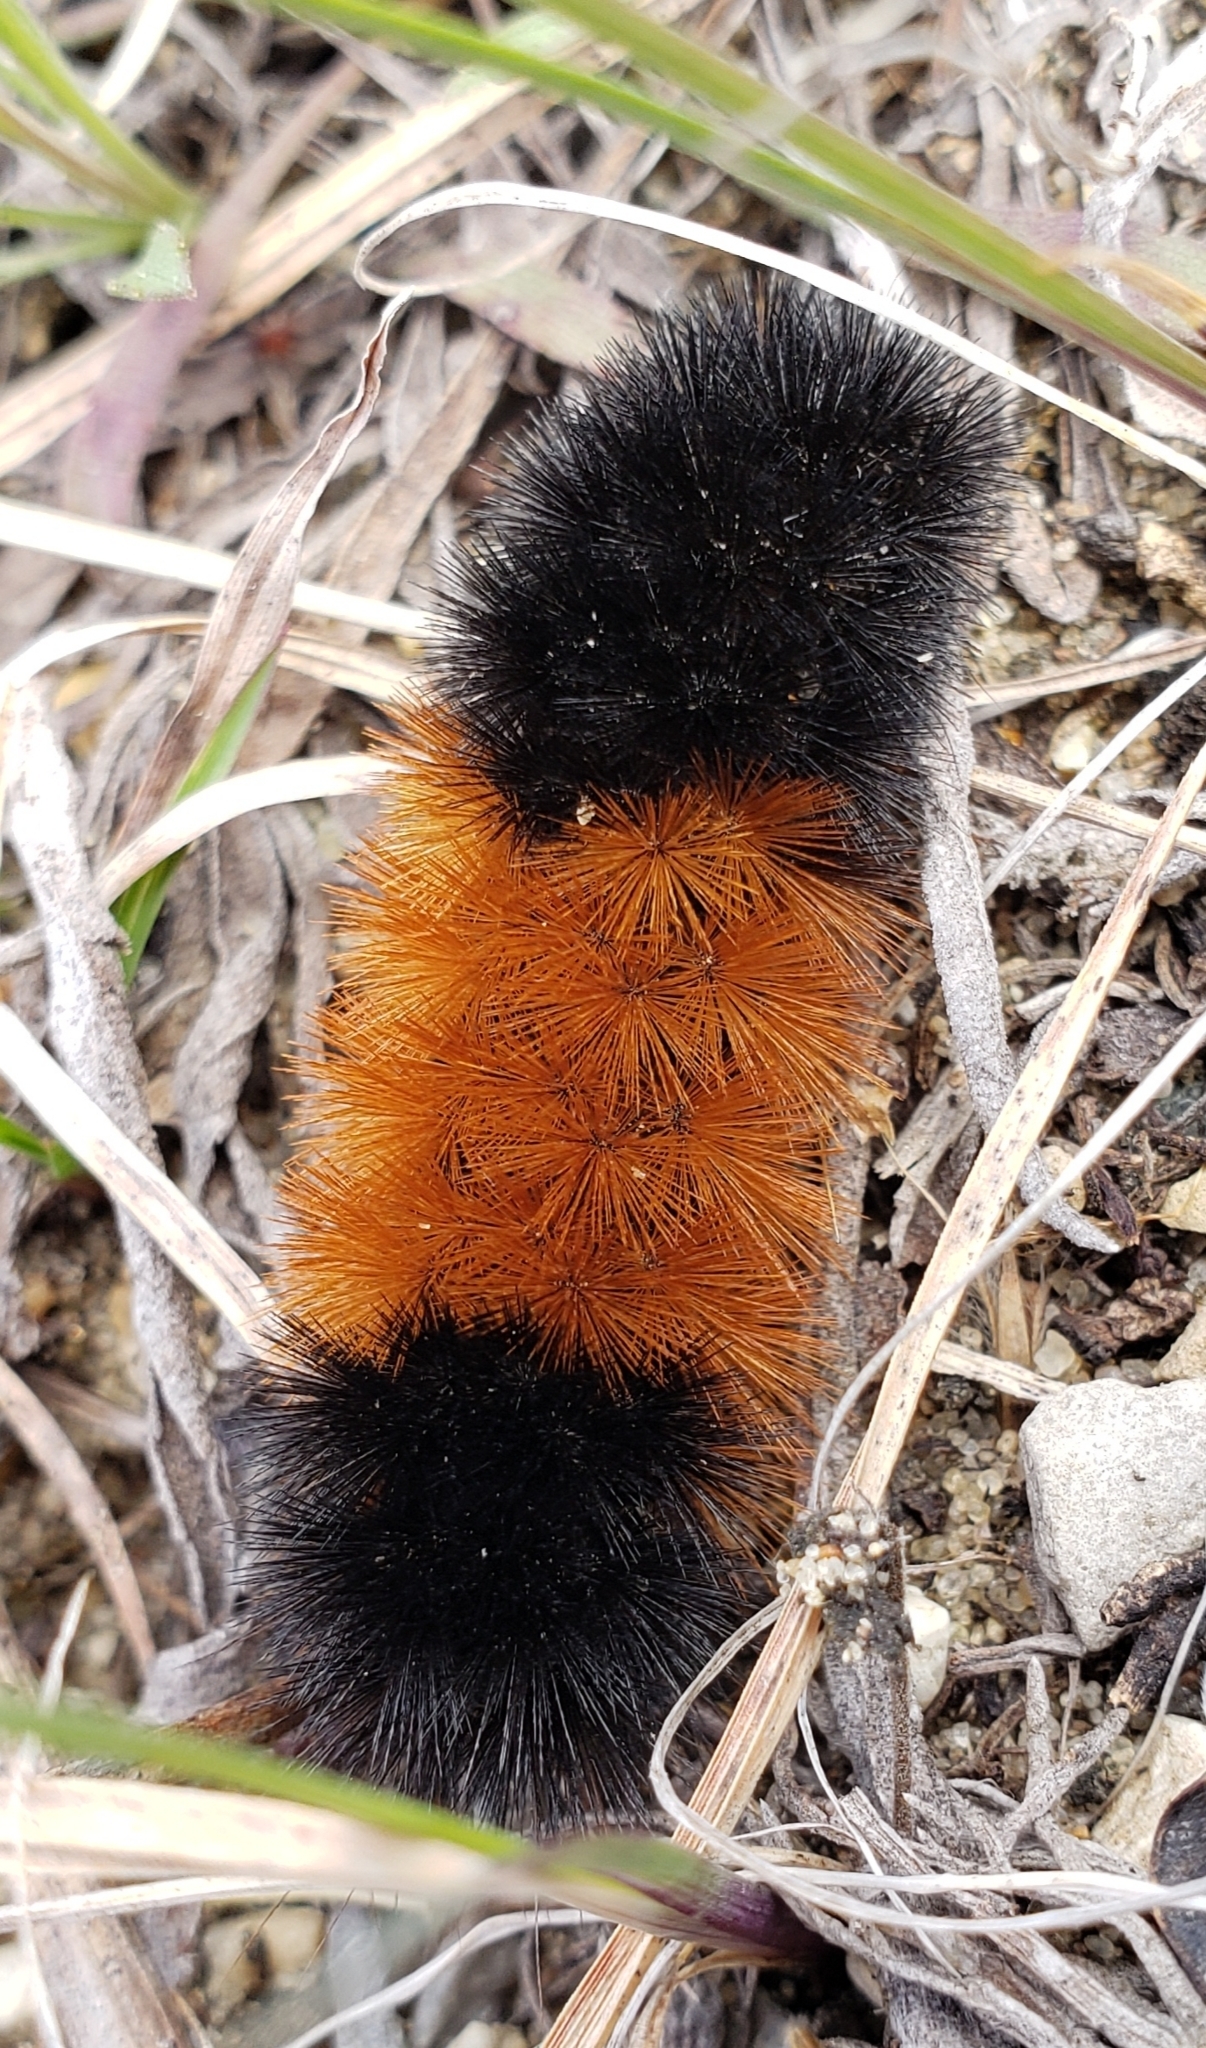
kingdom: Animalia
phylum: Arthropoda
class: Insecta
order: Lepidoptera
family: Erebidae
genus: Pyrrharctia
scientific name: Pyrrharctia isabella
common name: Isabella tiger moth
